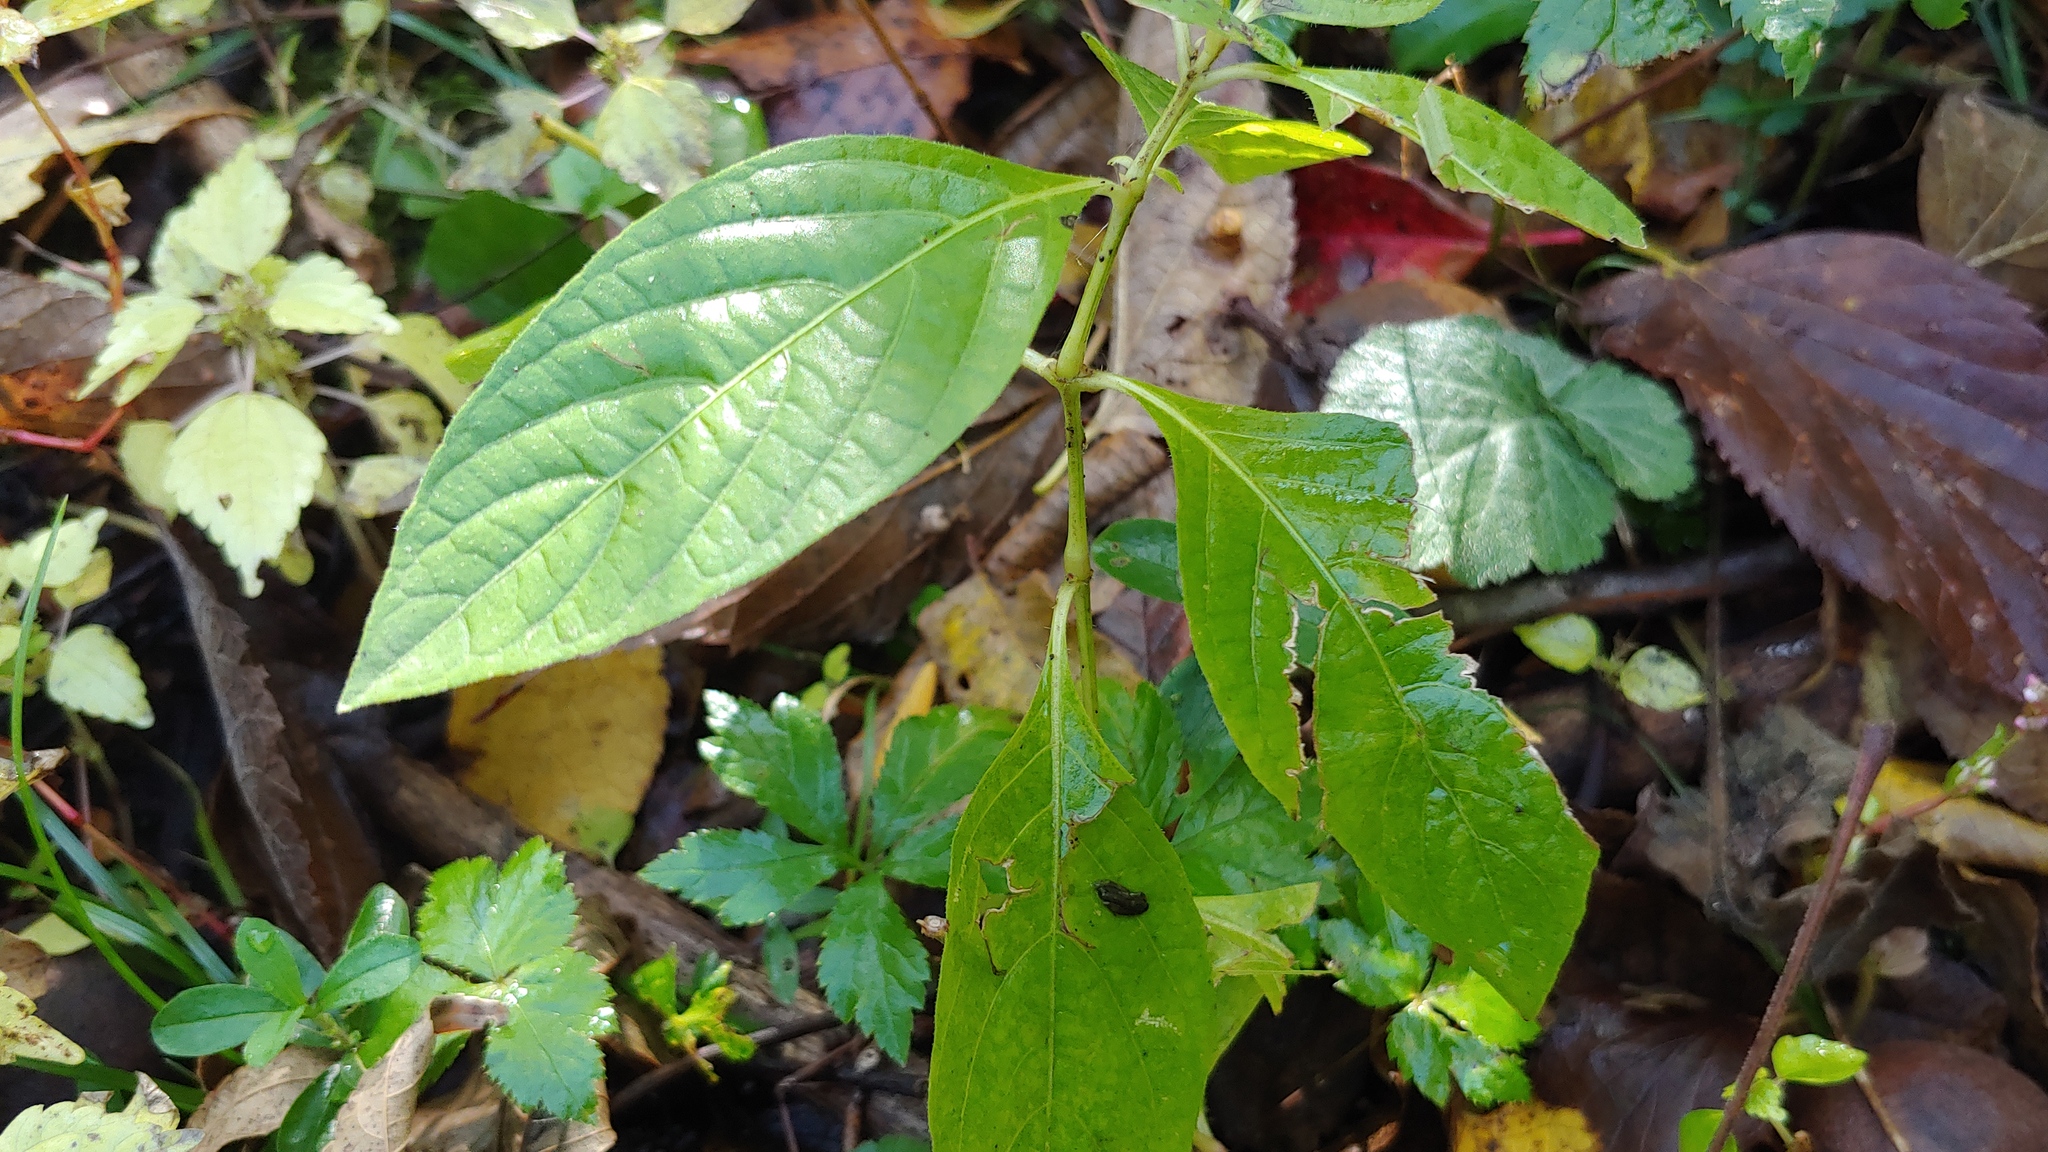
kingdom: Plantae
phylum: Tracheophyta
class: Magnoliopsida
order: Lamiales
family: Acanthaceae
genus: Ruellia
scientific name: Ruellia strepens
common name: Limestone wild petunia
